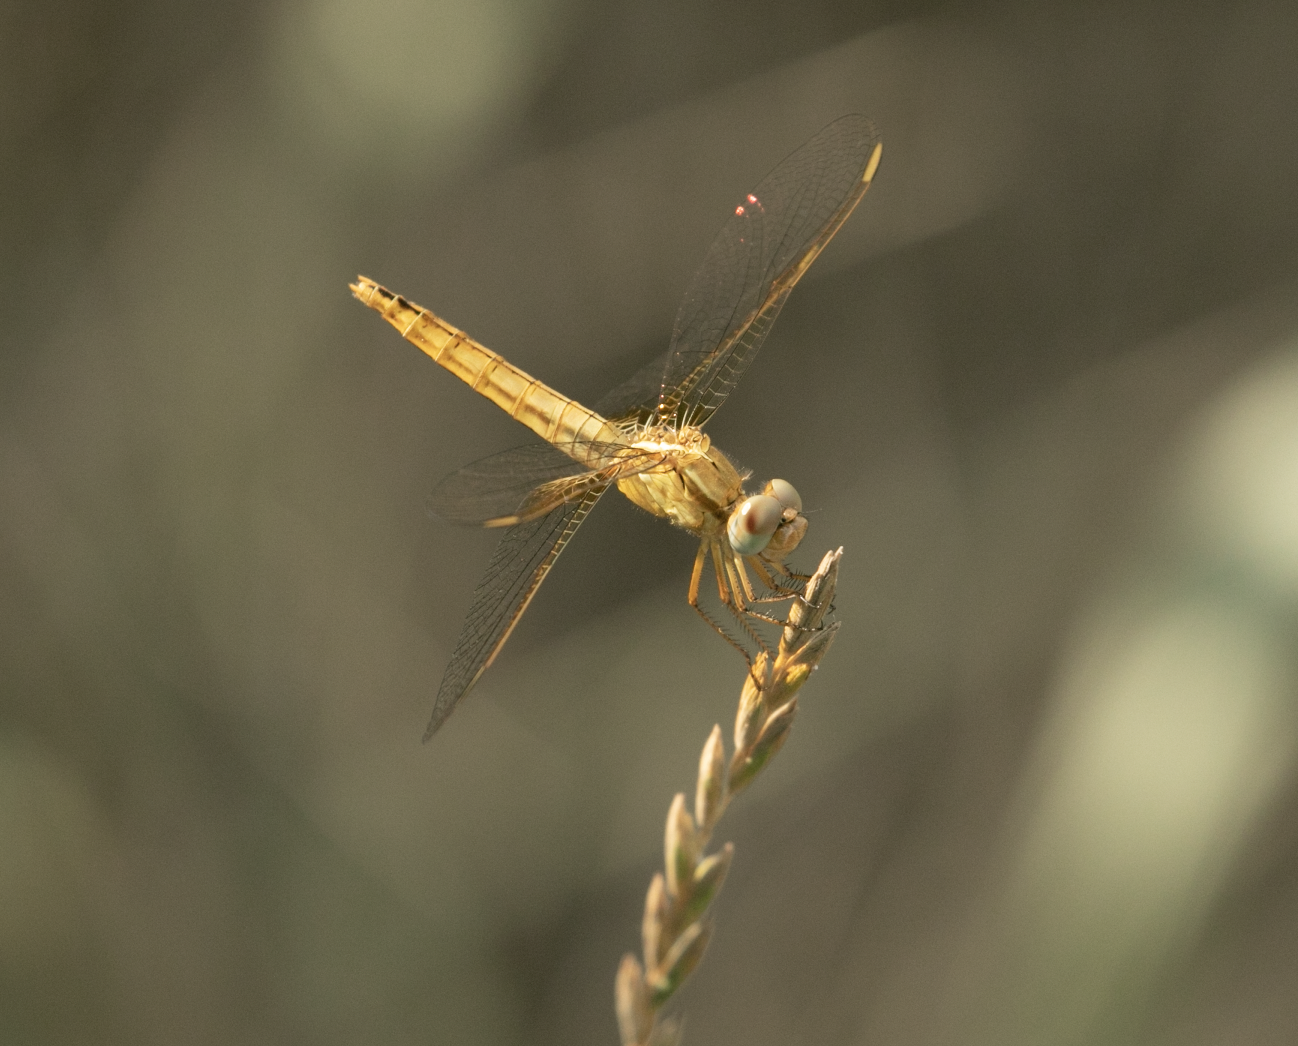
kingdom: Animalia
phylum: Arthropoda
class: Insecta
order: Odonata
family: Libellulidae
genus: Crocothemis
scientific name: Crocothemis erythraea
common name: Scarlet dragonfly
